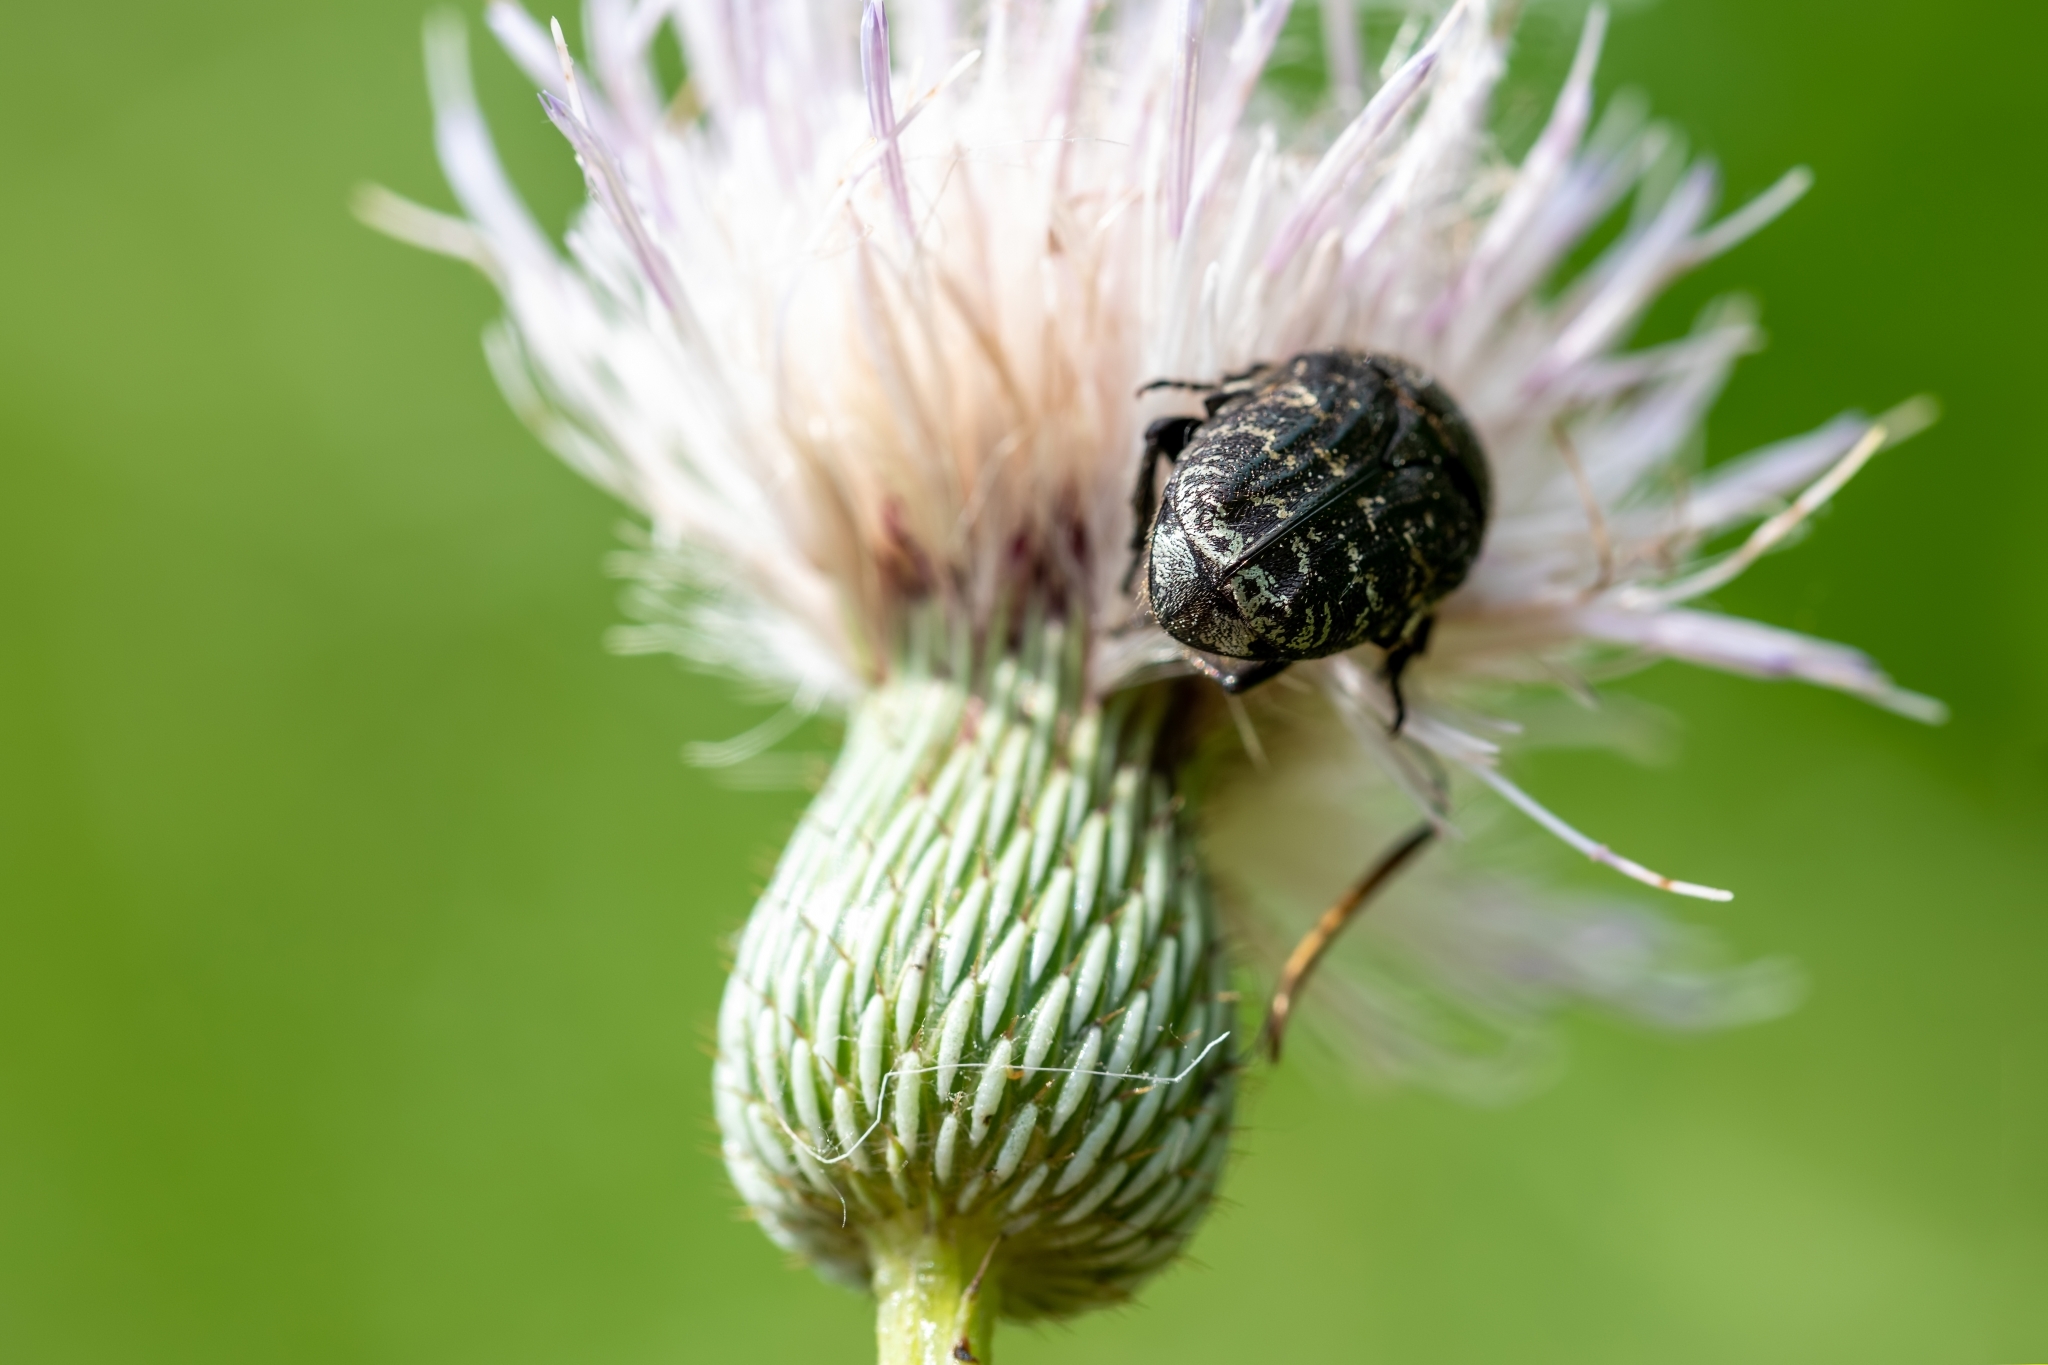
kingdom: Animalia
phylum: Arthropoda
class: Insecta
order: Coleoptera
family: Scarabaeidae
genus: Euphoria
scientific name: Euphoria sepulcralis
